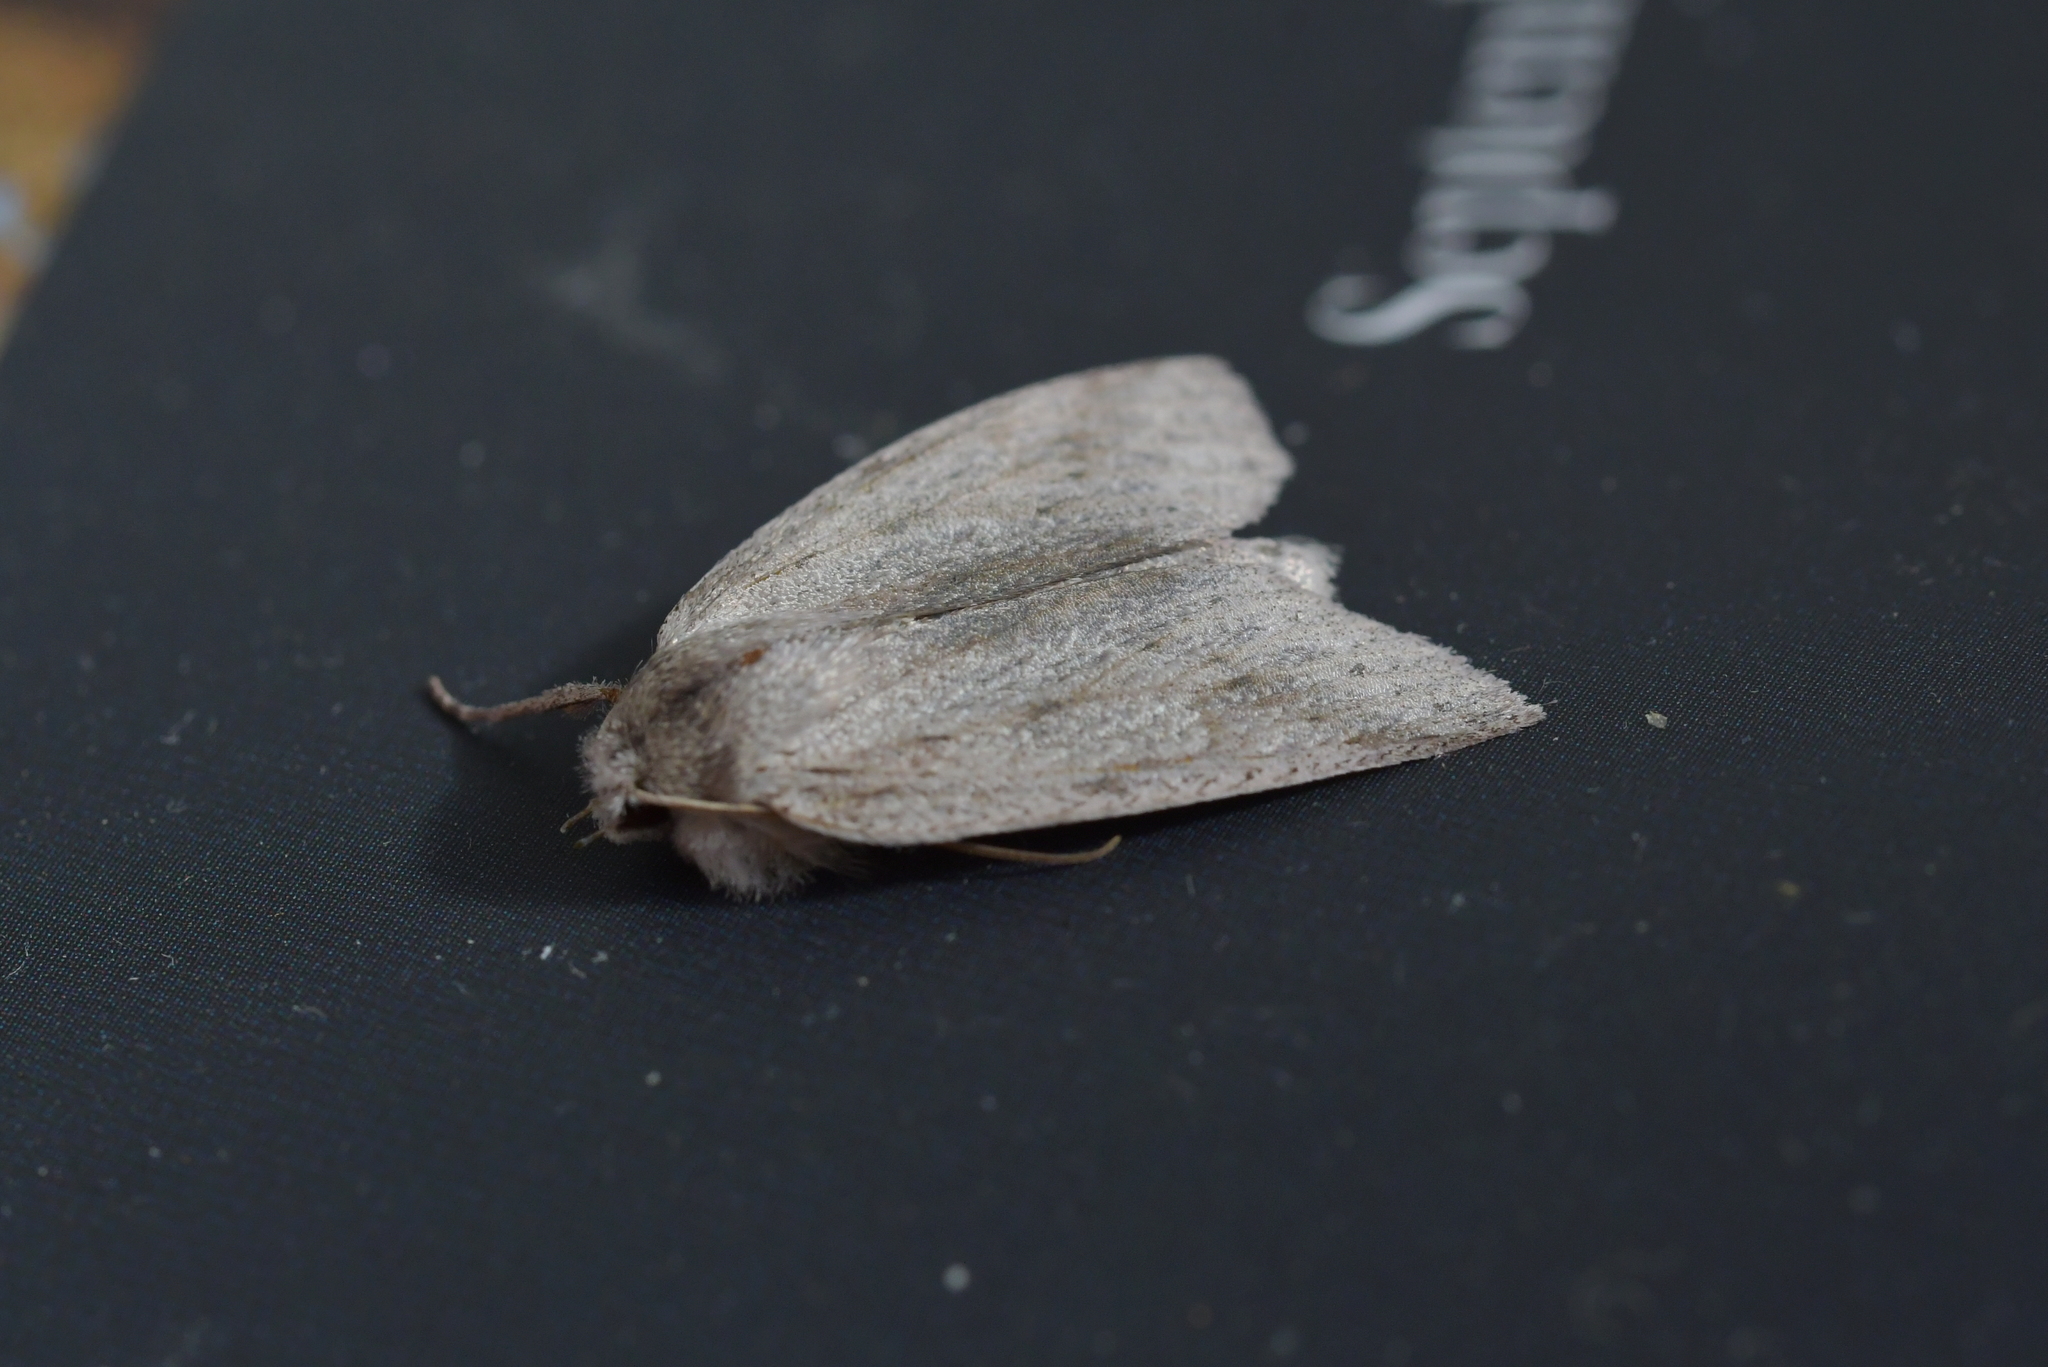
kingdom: Animalia
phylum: Arthropoda
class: Insecta
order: Lepidoptera
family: Geometridae
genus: Declana
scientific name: Declana leptomera
